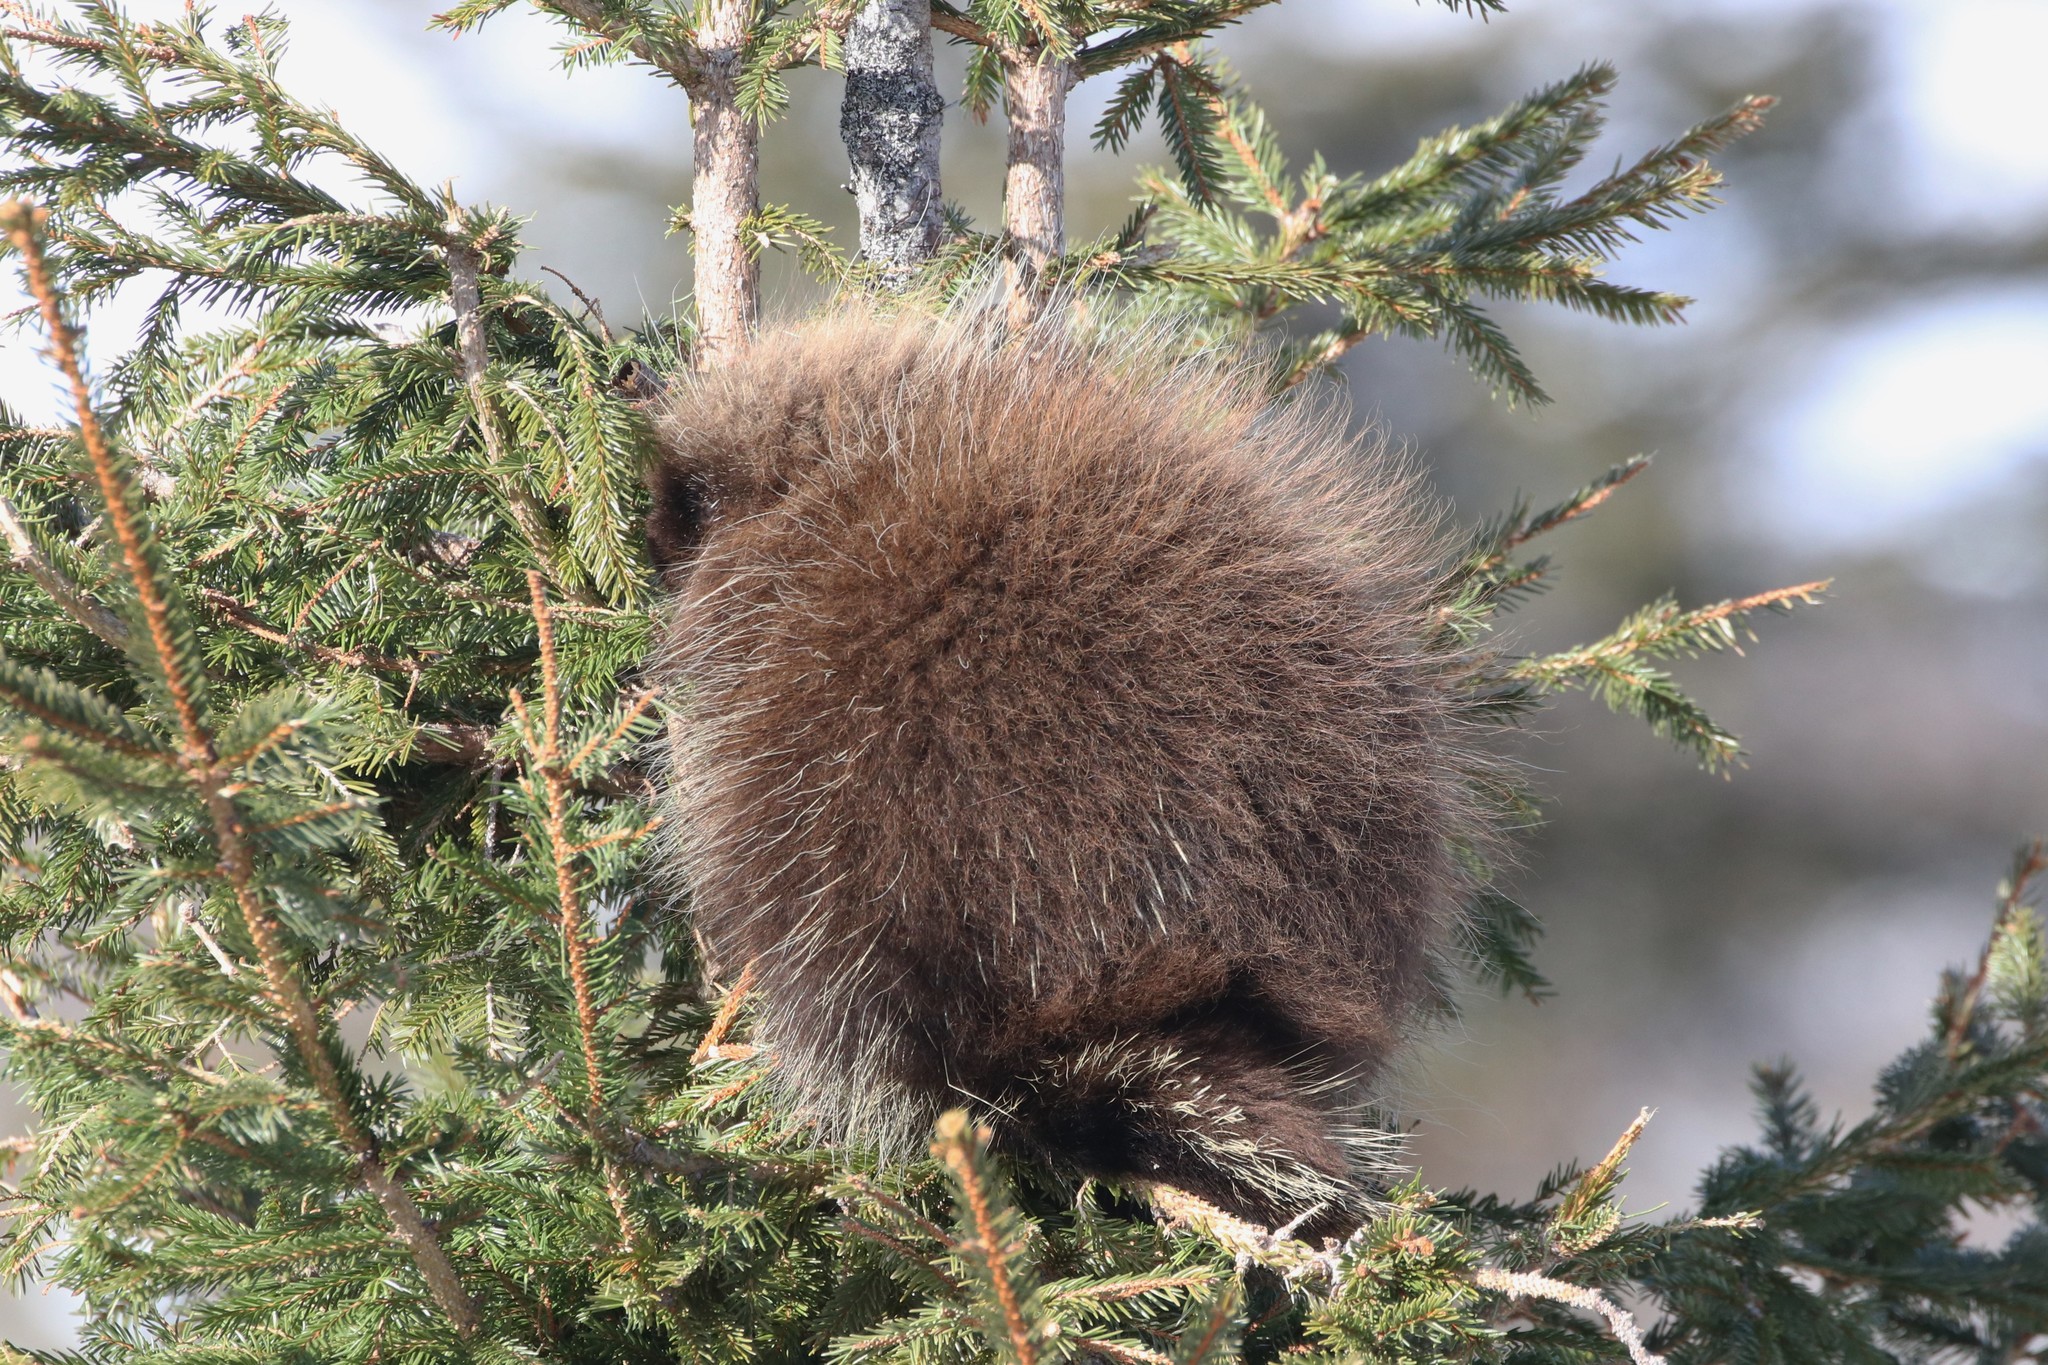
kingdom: Animalia
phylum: Chordata
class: Mammalia
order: Rodentia
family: Erethizontidae
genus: Erethizon
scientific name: Erethizon dorsatus
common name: North american porcupine
